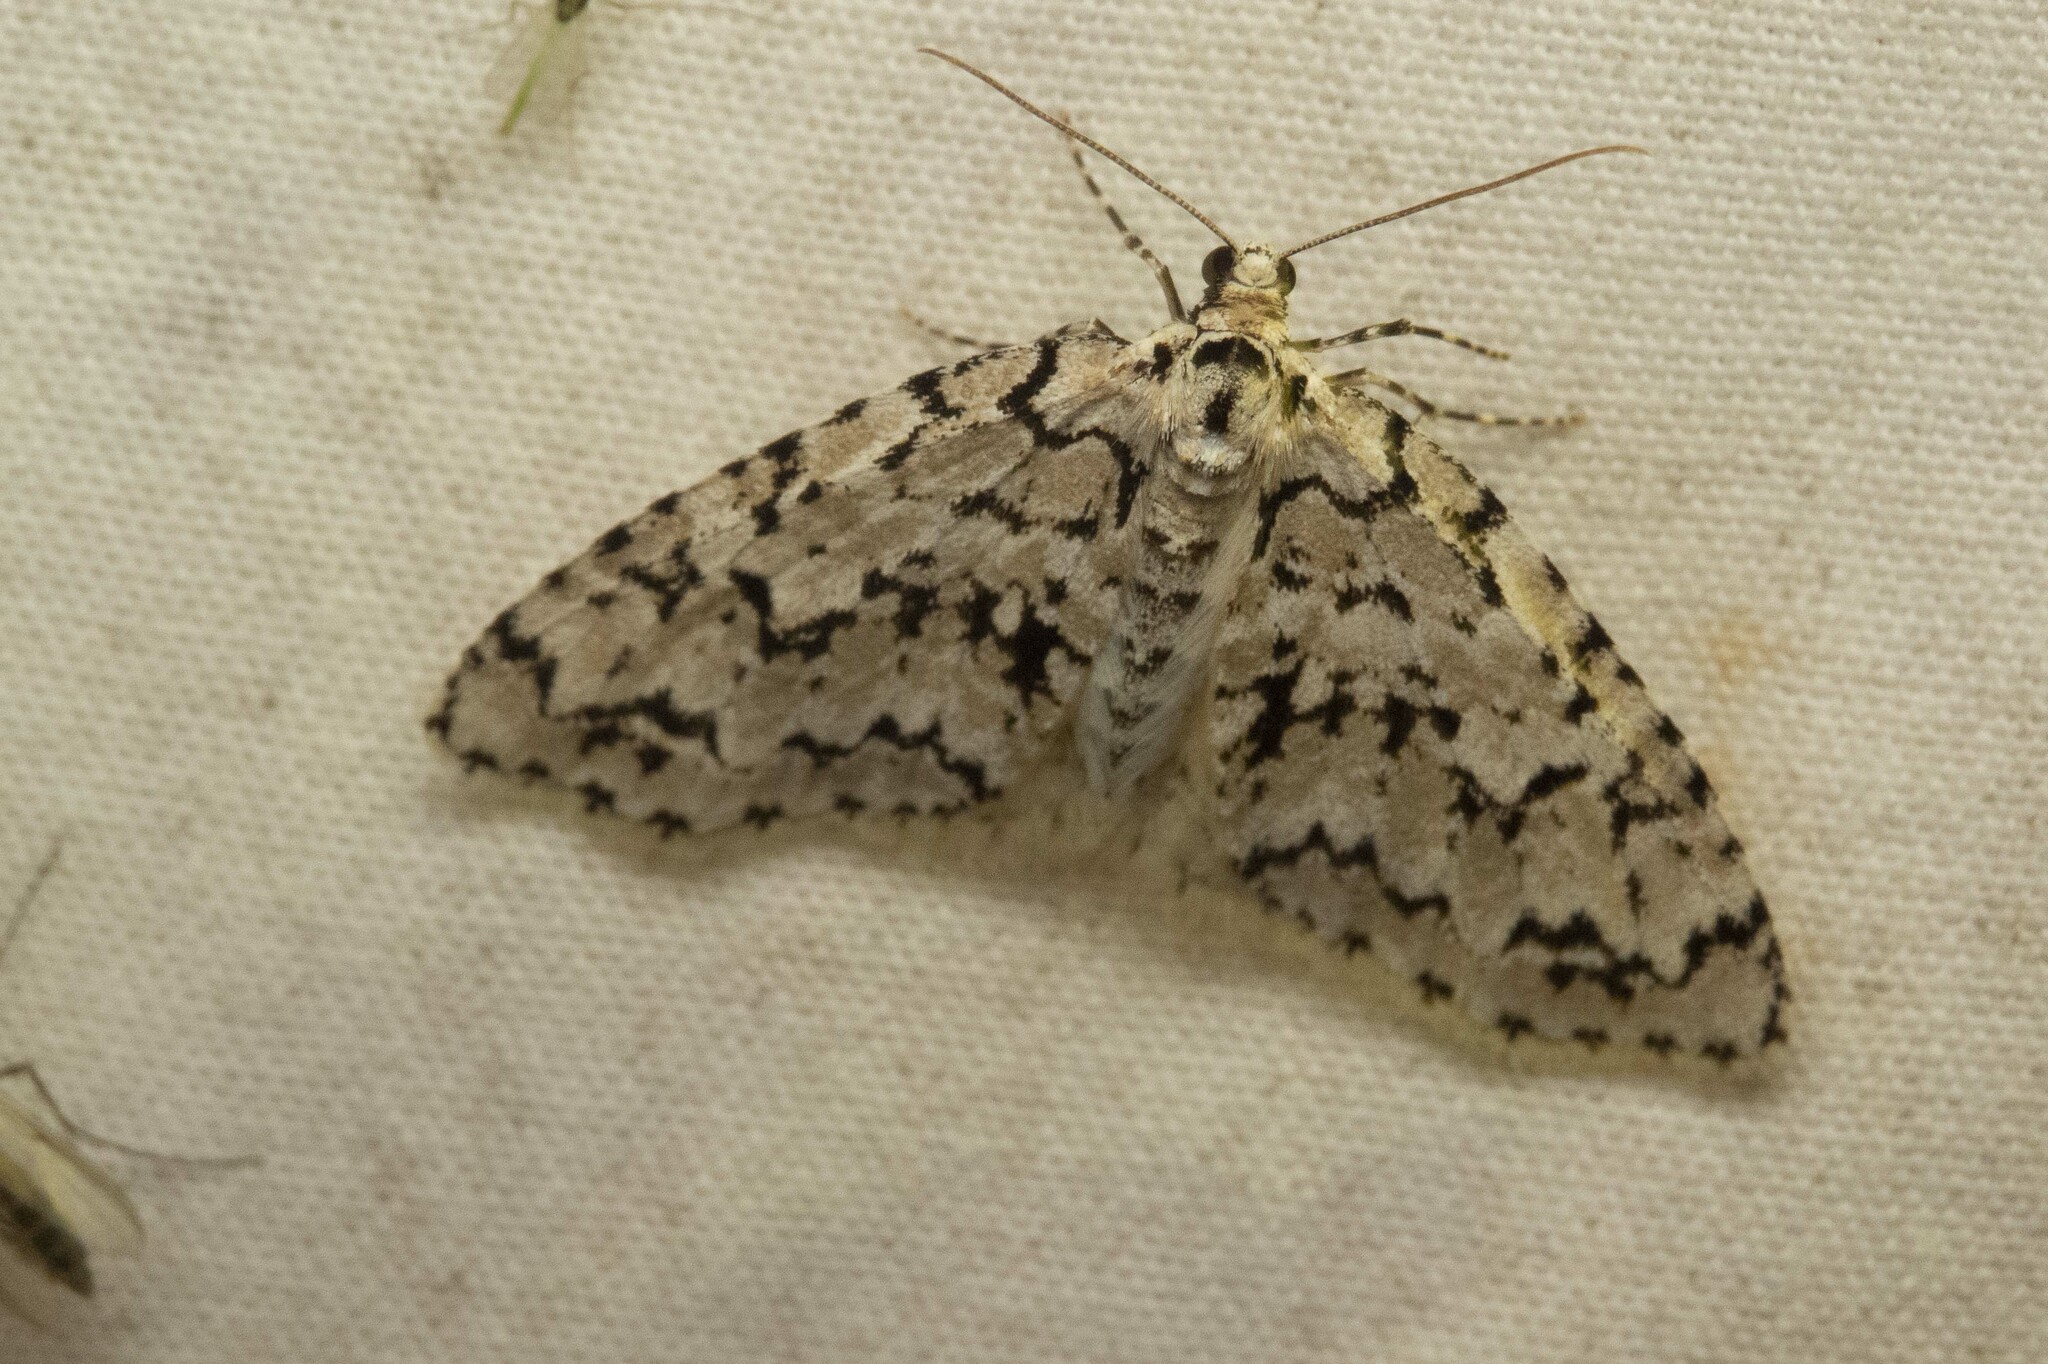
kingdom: Animalia
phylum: Arthropoda
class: Insecta
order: Lepidoptera
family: Geometridae
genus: Cladara
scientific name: Cladara atroliturata
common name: Scribbler
